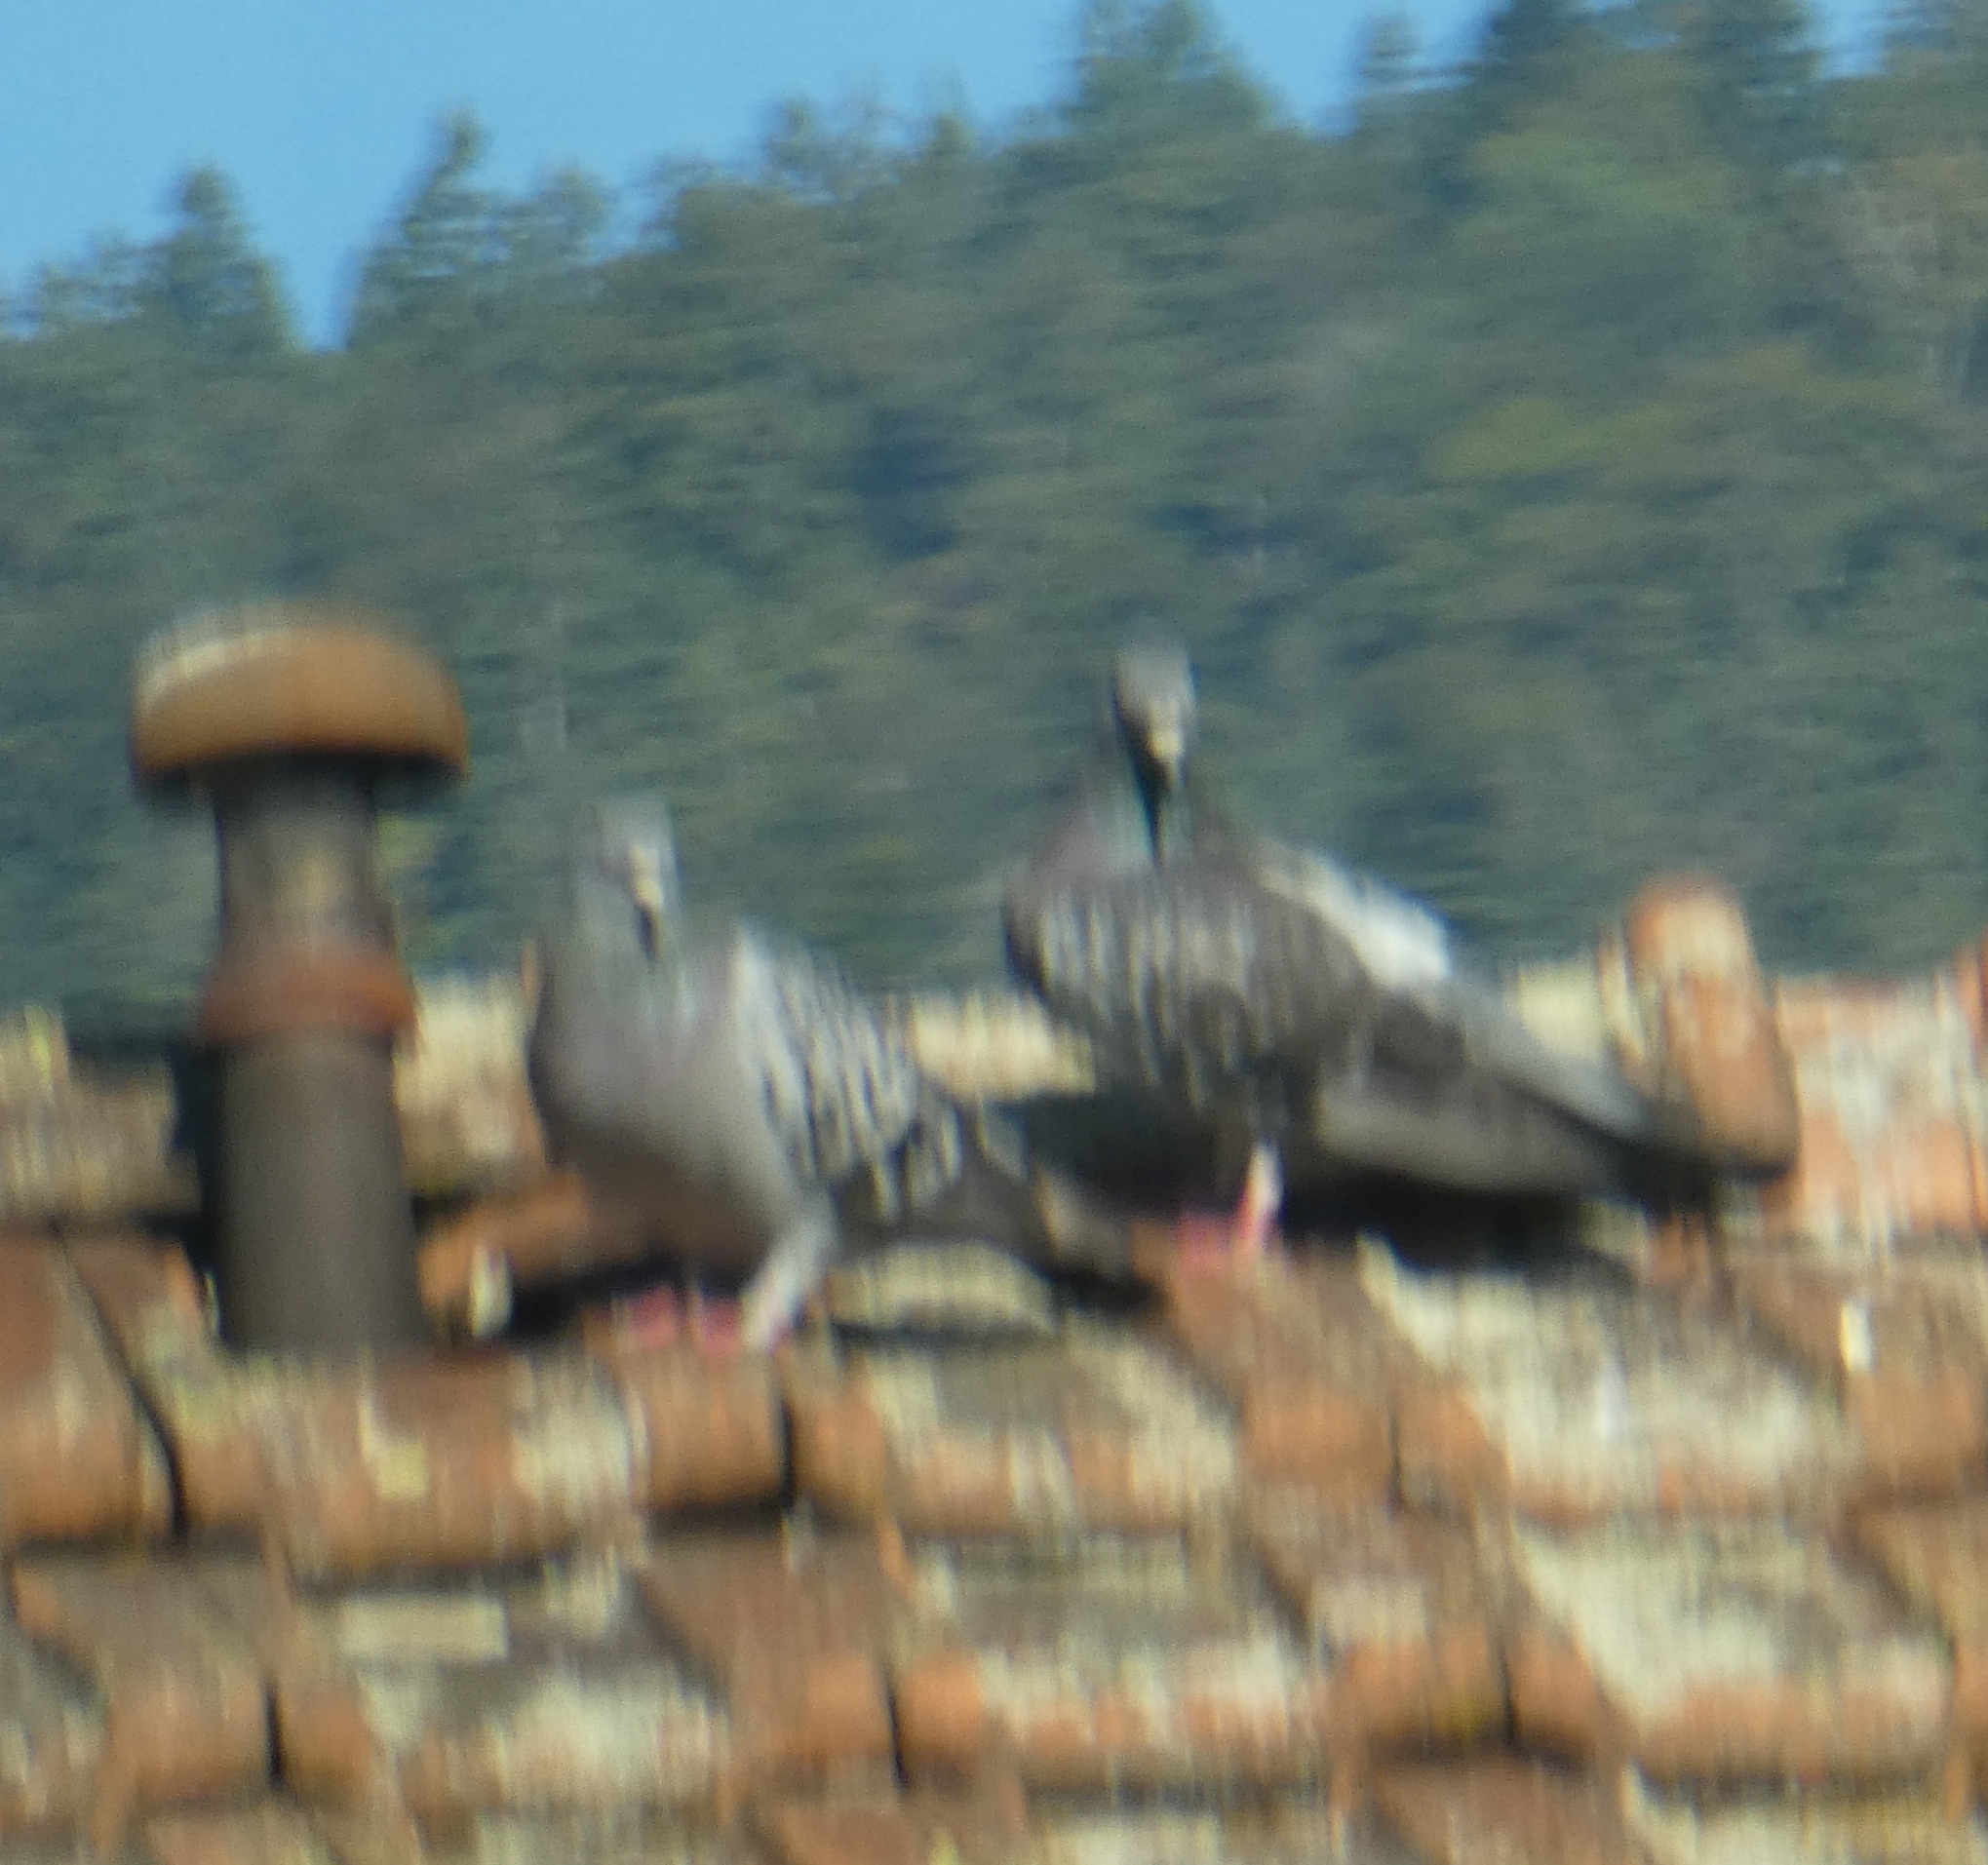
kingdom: Animalia
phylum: Chordata
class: Aves
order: Columbiformes
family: Columbidae
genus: Columba
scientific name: Columba livia
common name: Rock pigeon
